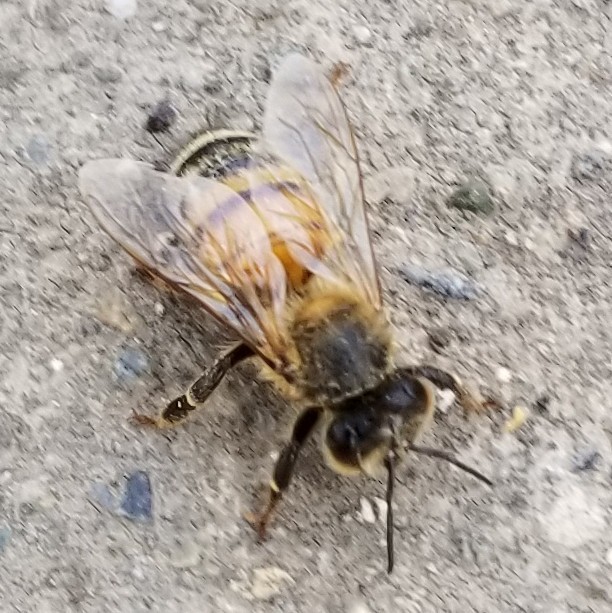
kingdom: Animalia
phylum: Arthropoda
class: Insecta
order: Hymenoptera
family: Apidae
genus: Apis
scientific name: Apis mellifera
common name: Honey bee
